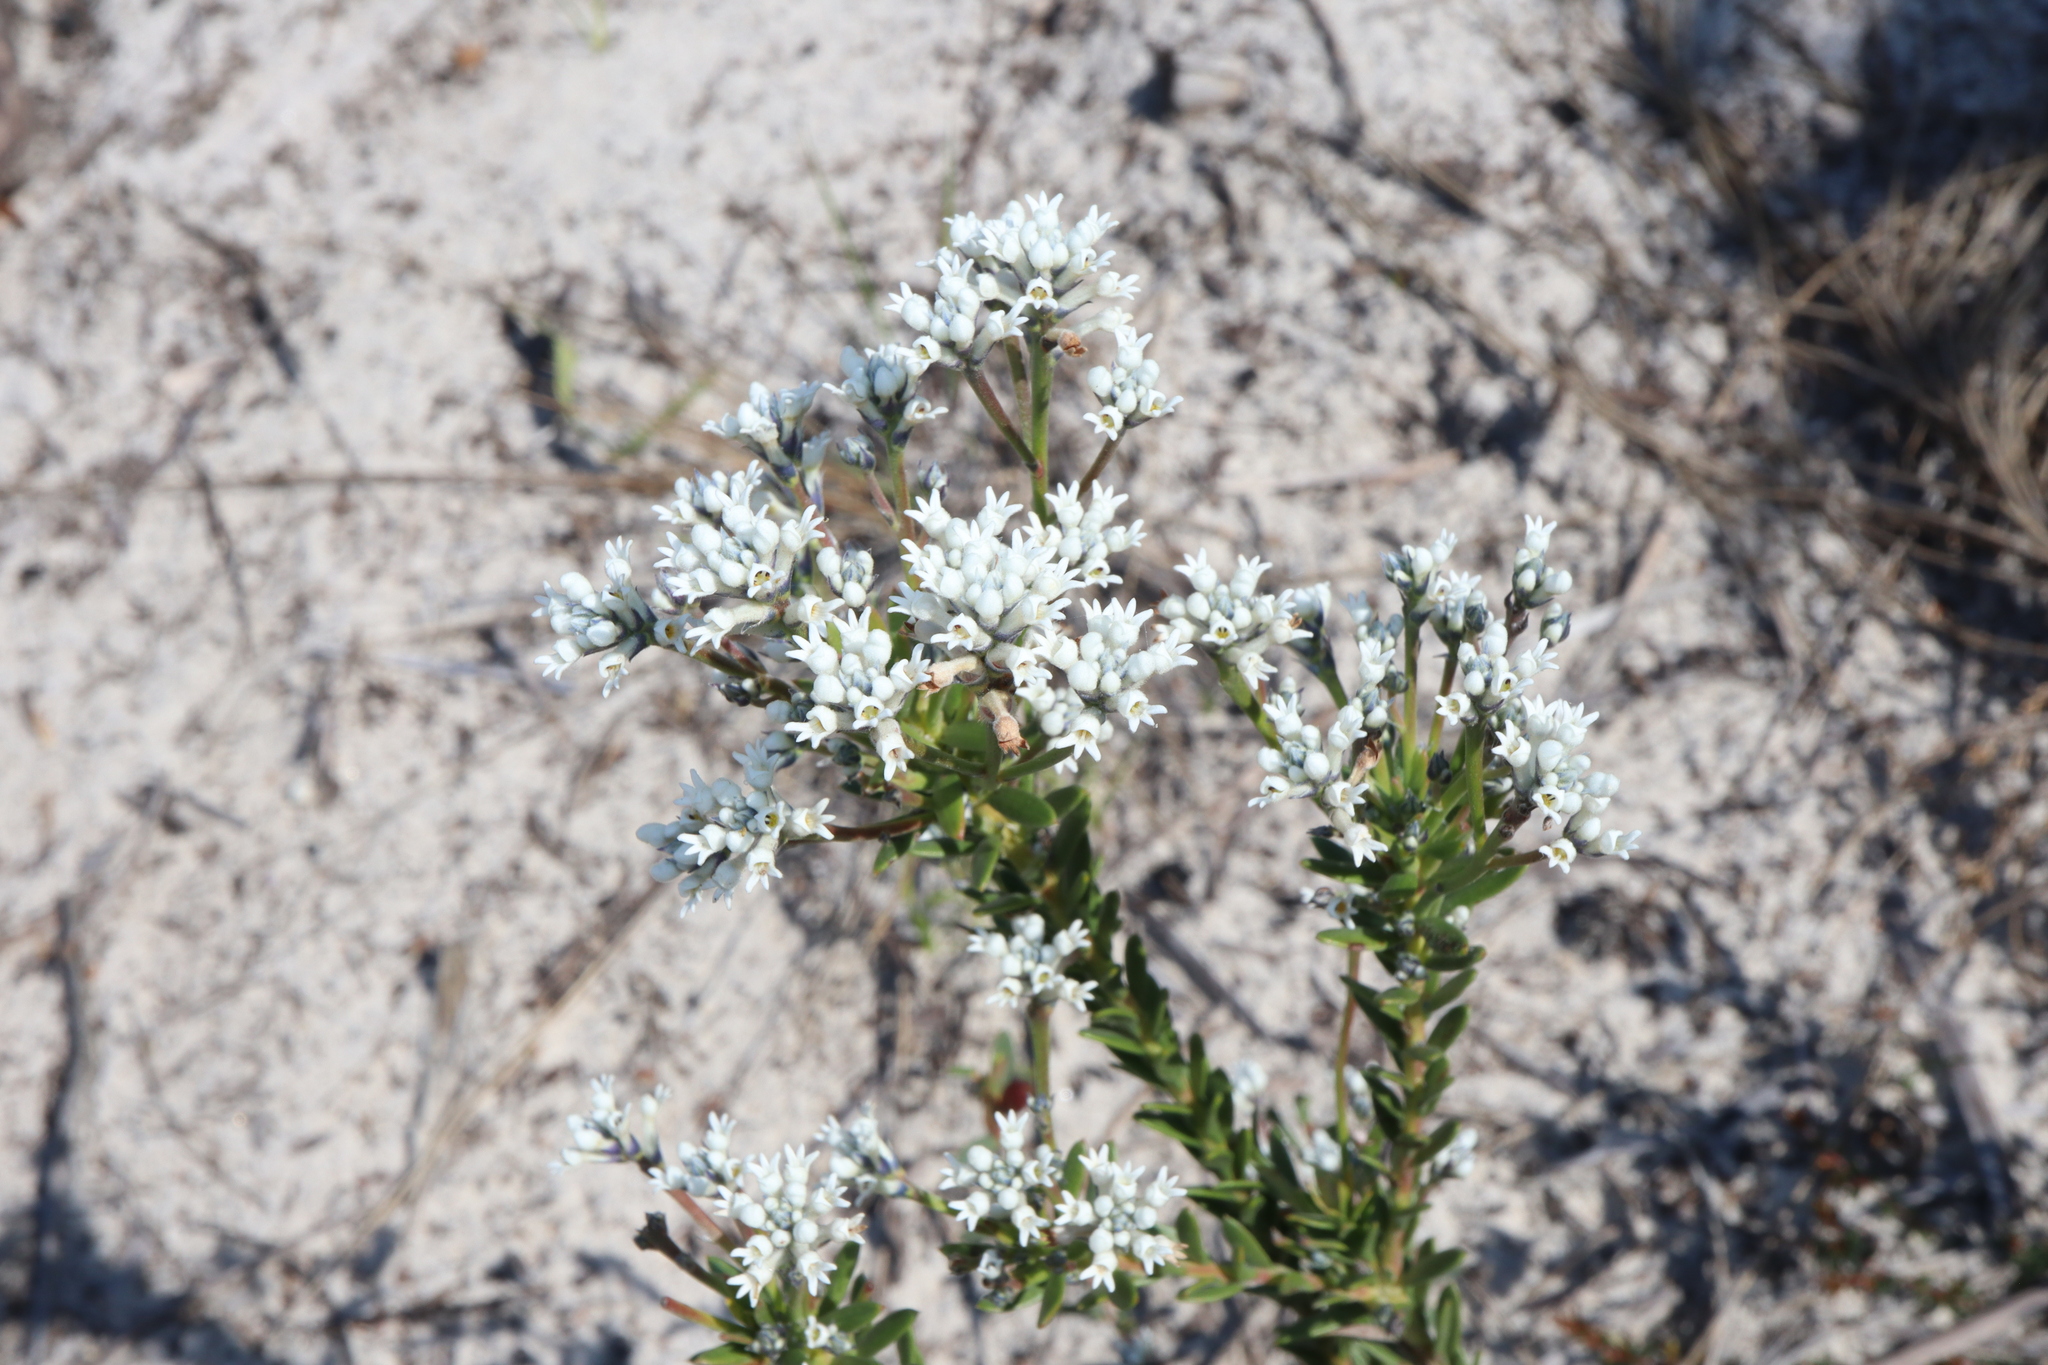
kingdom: Plantae
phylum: Tracheophyta
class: Magnoliopsida
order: Proteales
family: Proteaceae
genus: Conospermum
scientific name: Conospermum ellipticum
